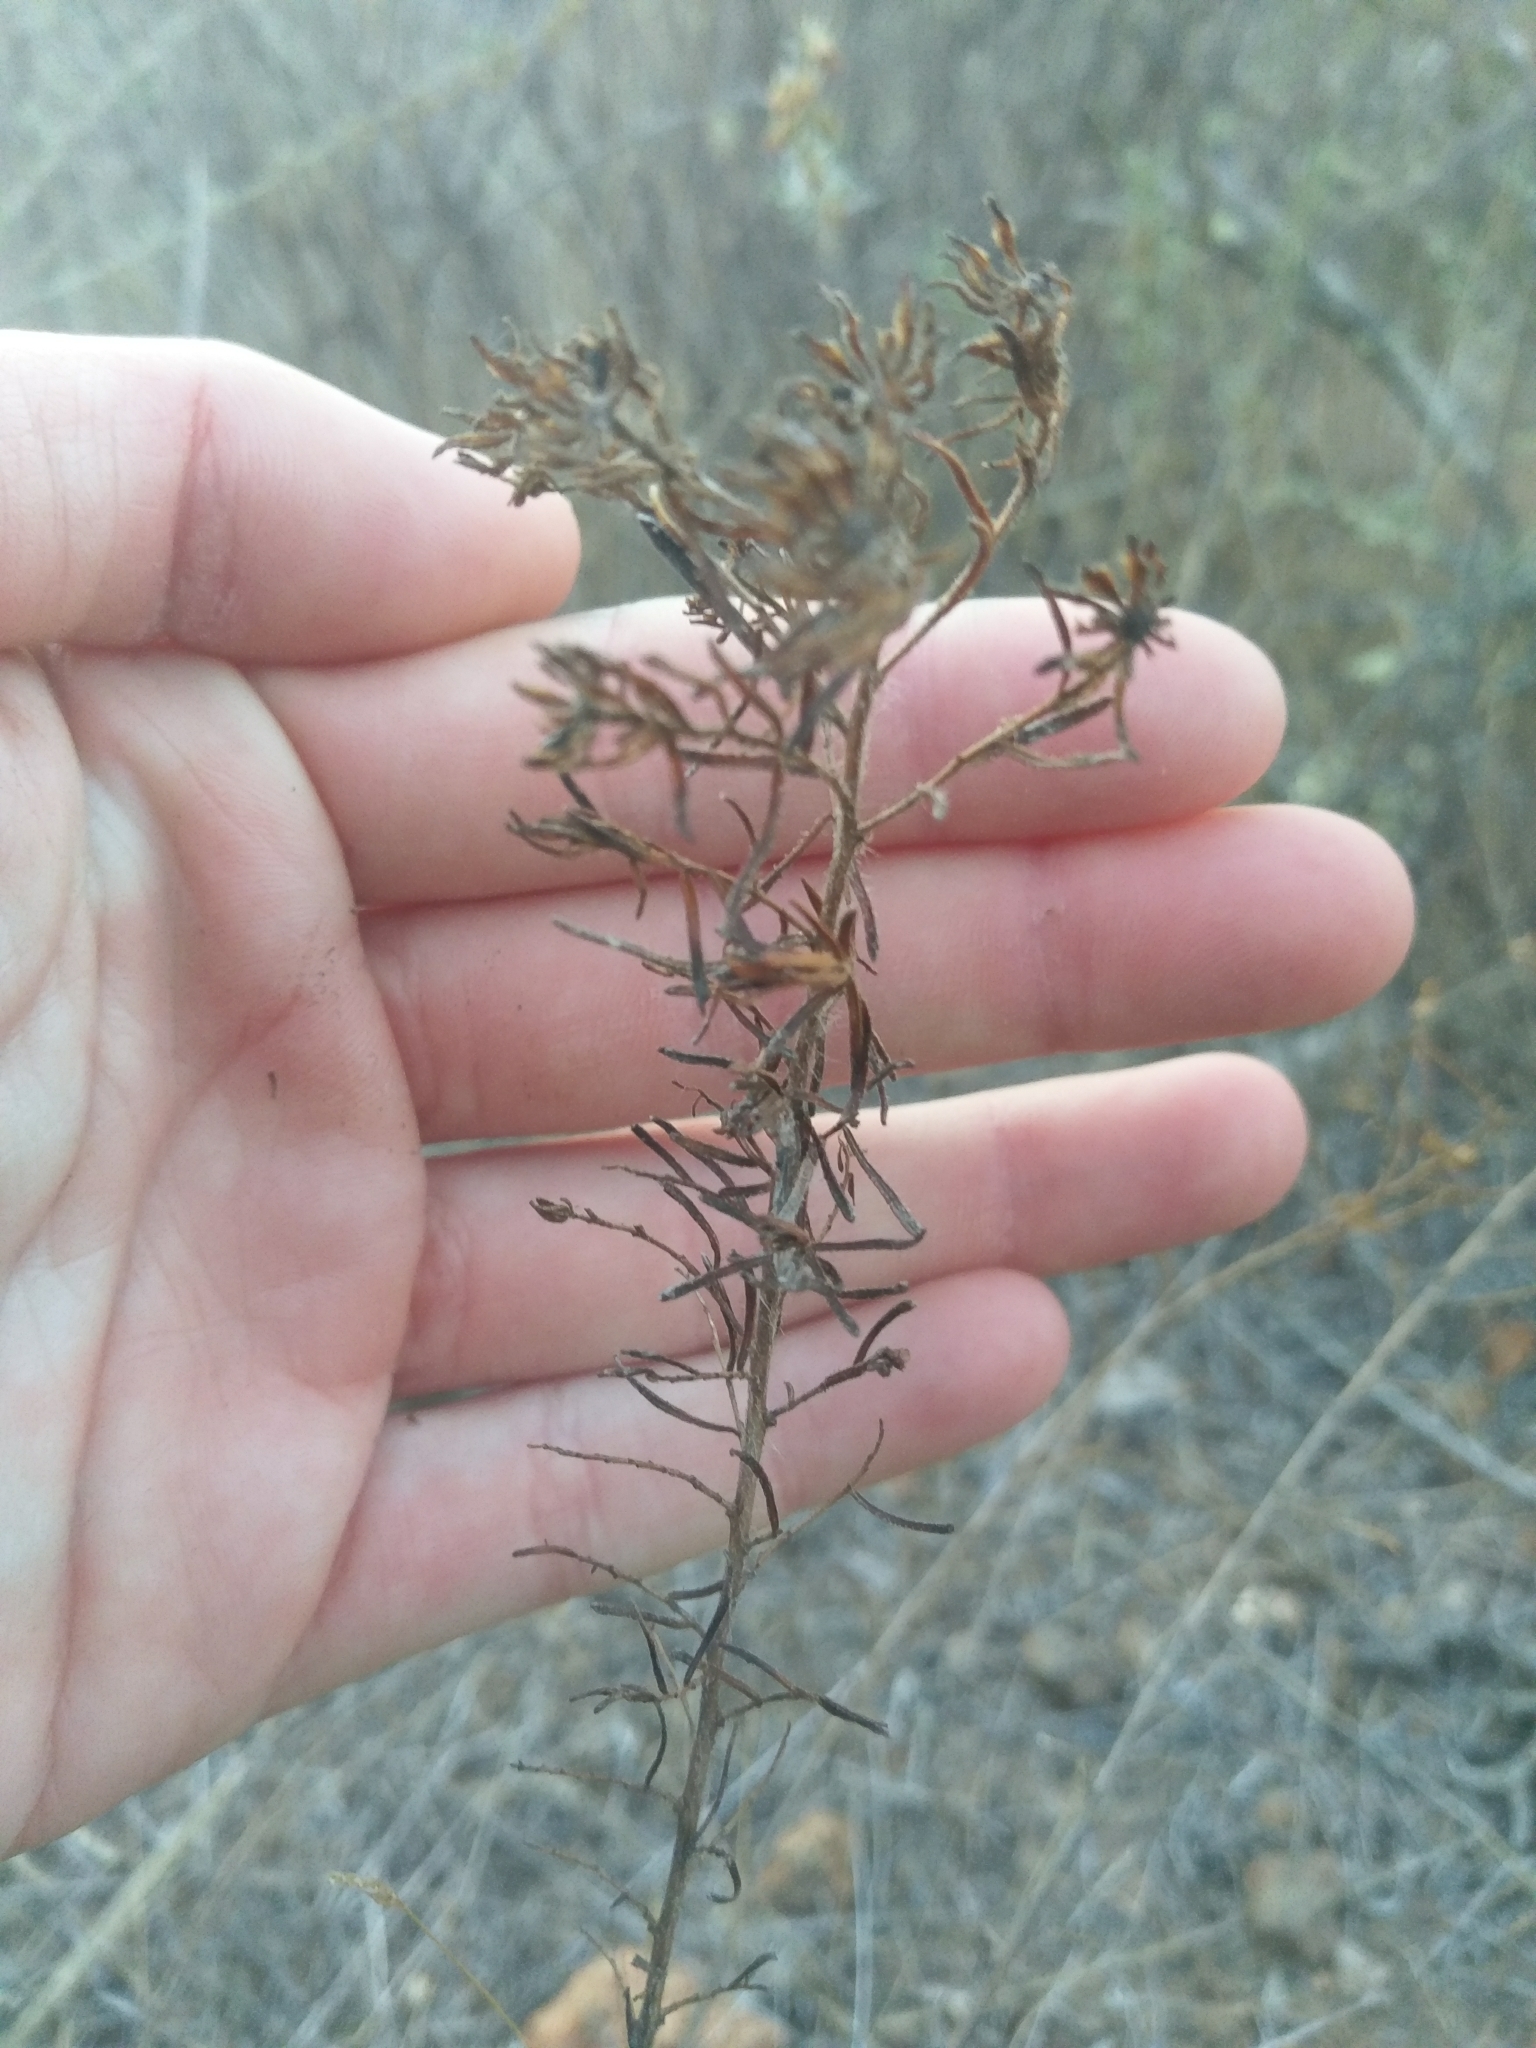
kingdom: Plantae
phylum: Tracheophyta
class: Magnoliopsida
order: Asterales
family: Asteraceae
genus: Deinandra
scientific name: Deinandra clementina
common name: Island tarplant
